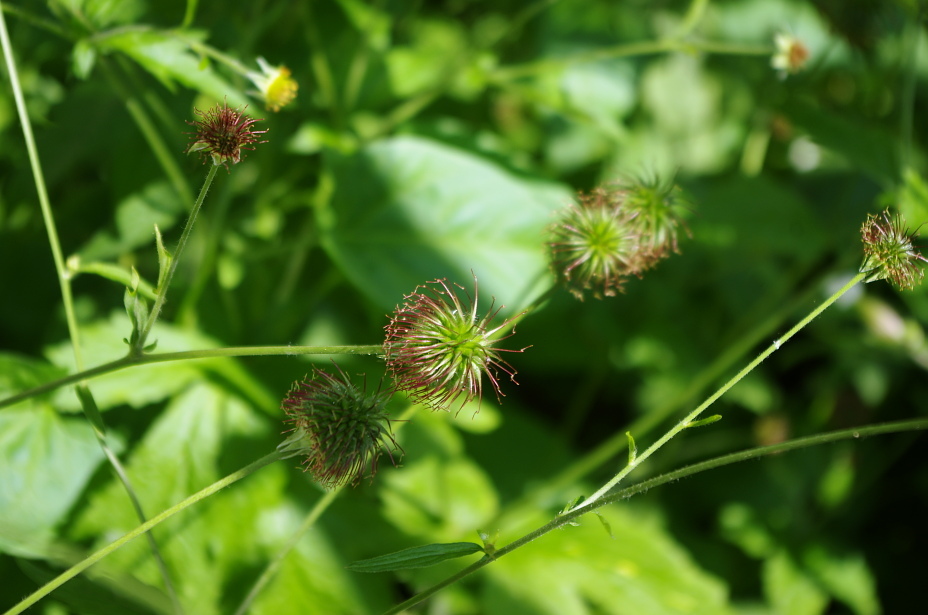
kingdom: Plantae
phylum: Tracheophyta
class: Magnoliopsida
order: Rosales
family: Rosaceae
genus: Geum
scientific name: Geum urbanum
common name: Wood avens
